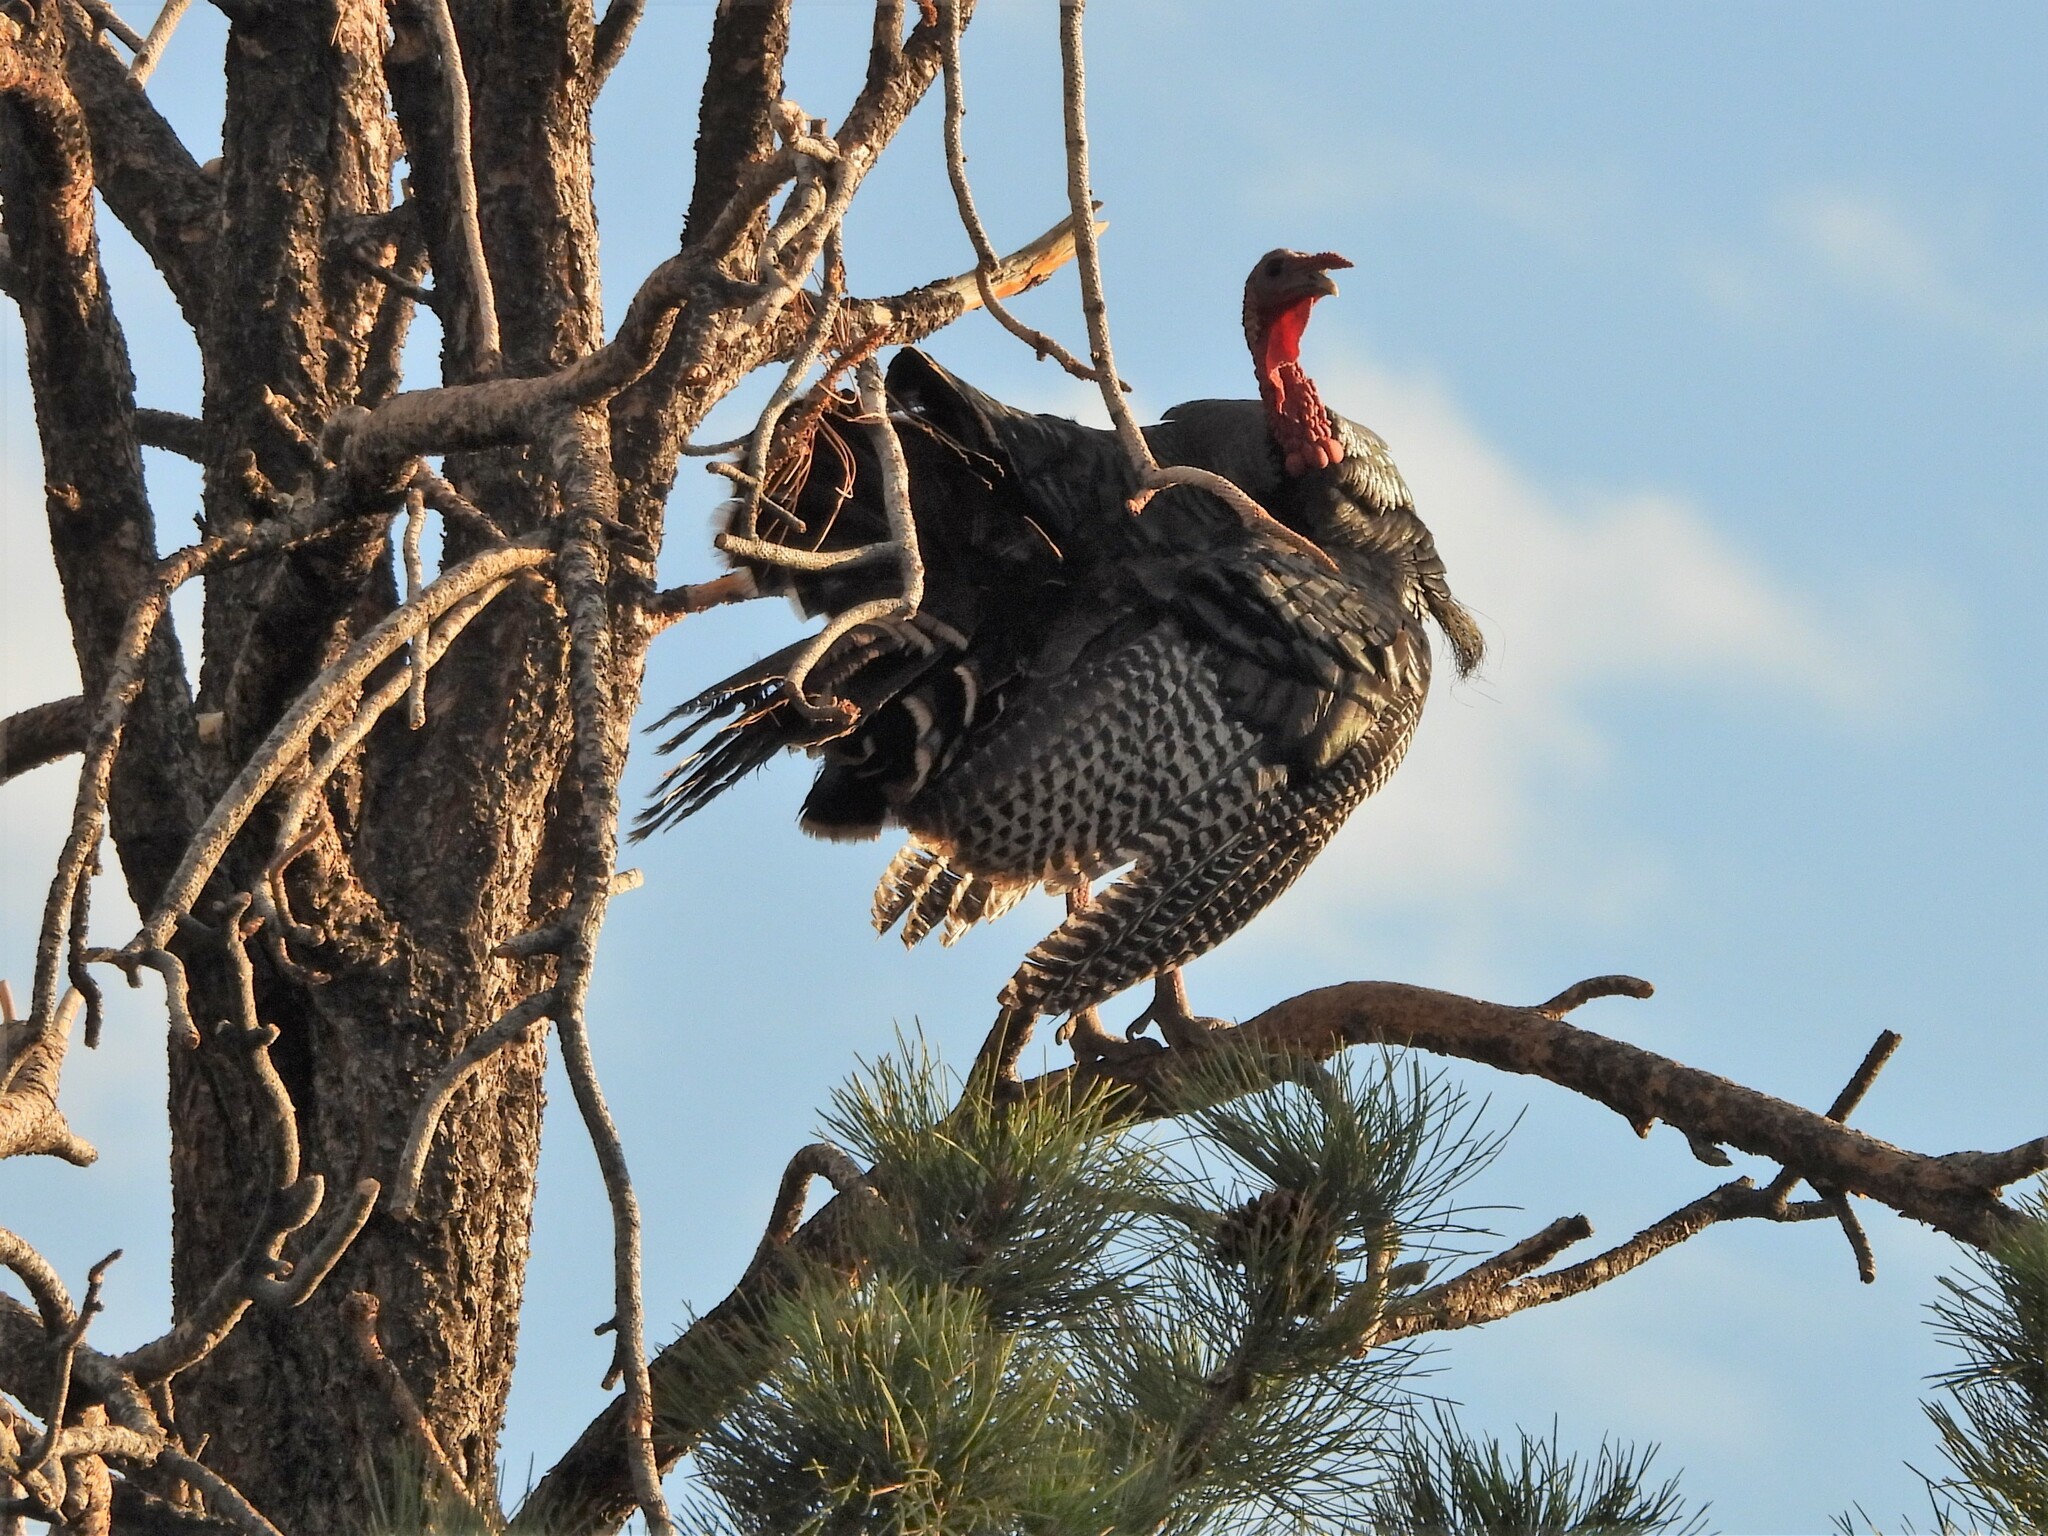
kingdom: Animalia
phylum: Chordata
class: Aves
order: Galliformes
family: Phasianidae
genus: Meleagris
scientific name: Meleagris gallopavo
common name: Wild turkey
